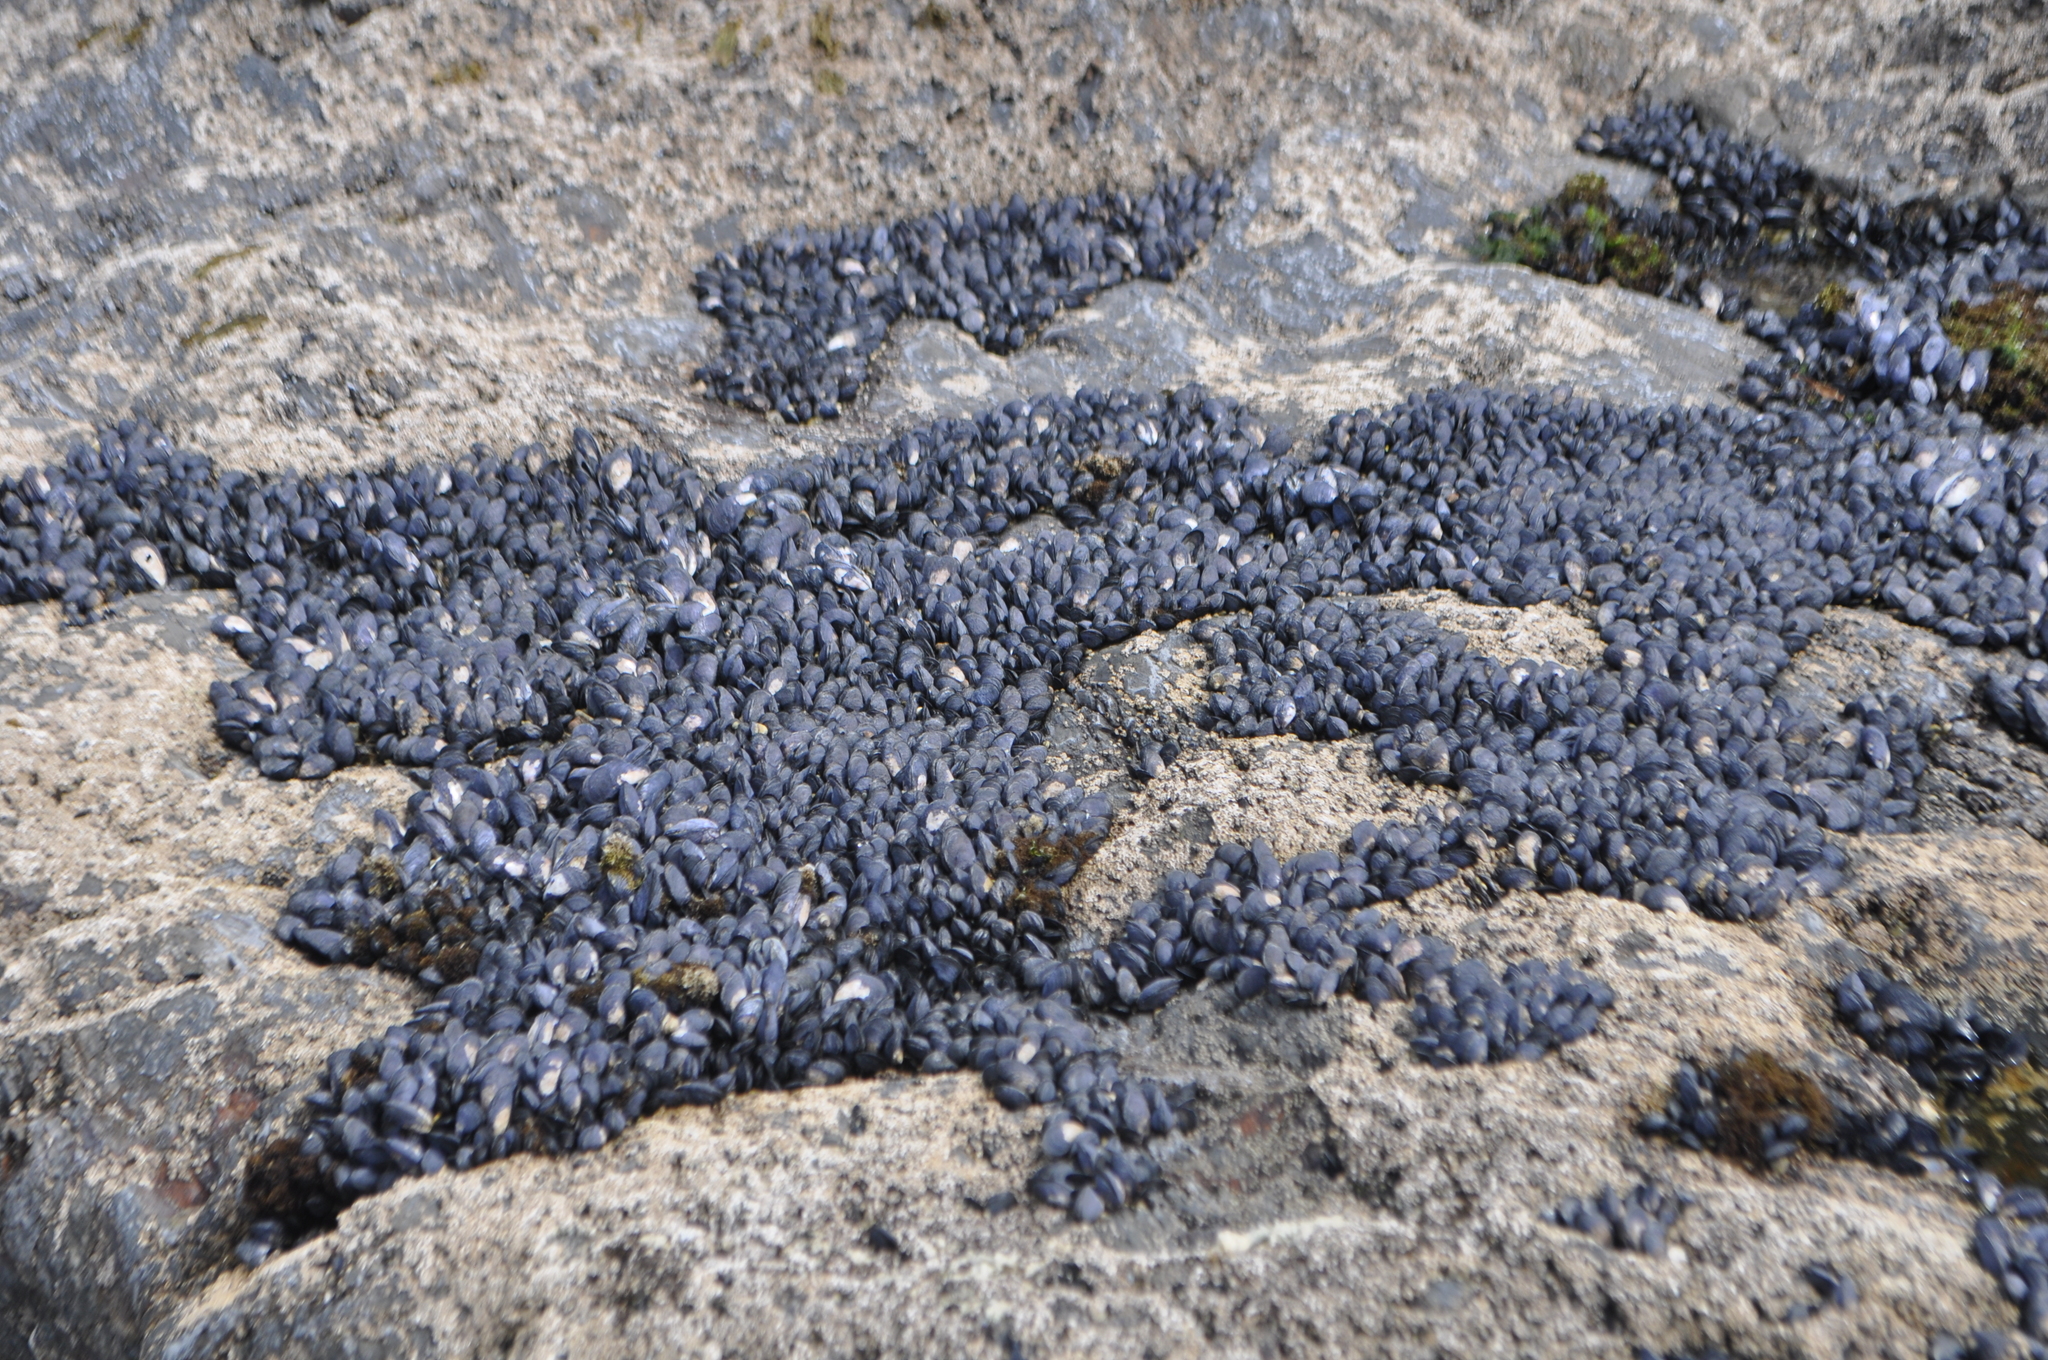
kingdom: Animalia
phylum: Mollusca
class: Bivalvia
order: Mytilida
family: Mytilidae
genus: Mytilus
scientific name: Mytilus planulatus
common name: Australian mussel
